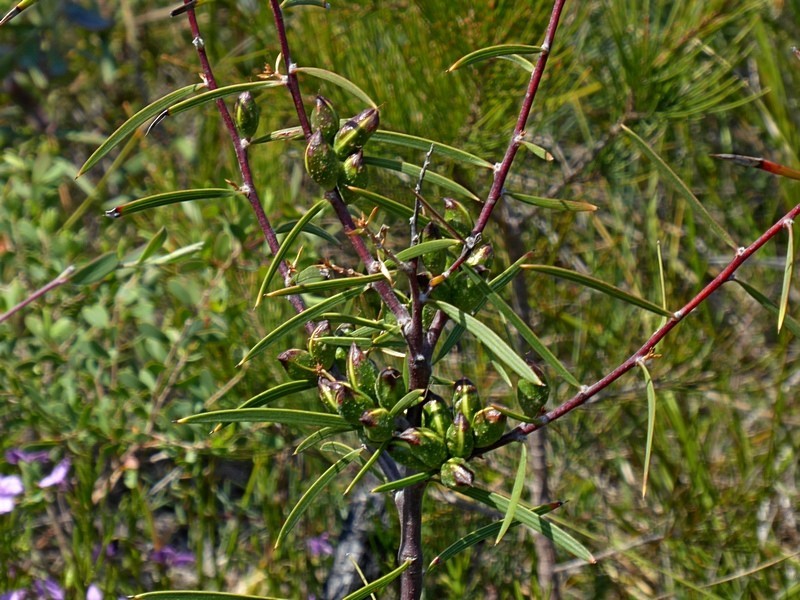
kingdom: Plantae
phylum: Tracheophyta
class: Magnoliopsida
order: Proteales
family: Proteaceae
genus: Hakea
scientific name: Hakea ulicina
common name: Furze hakea
